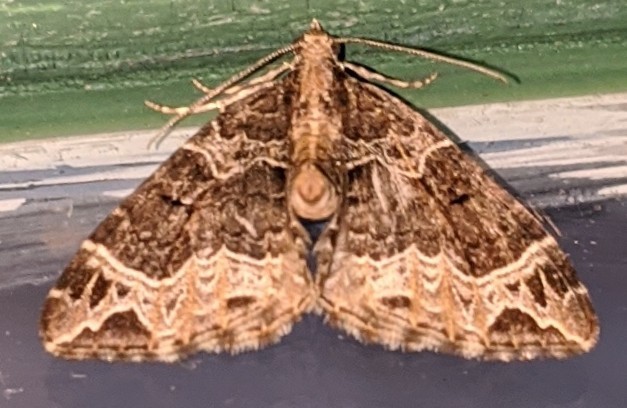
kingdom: Animalia
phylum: Arthropoda
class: Insecta
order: Lepidoptera
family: Geometridae
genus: Ecliptopera
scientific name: Ecliptopera silaceata
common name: Small phoenix
